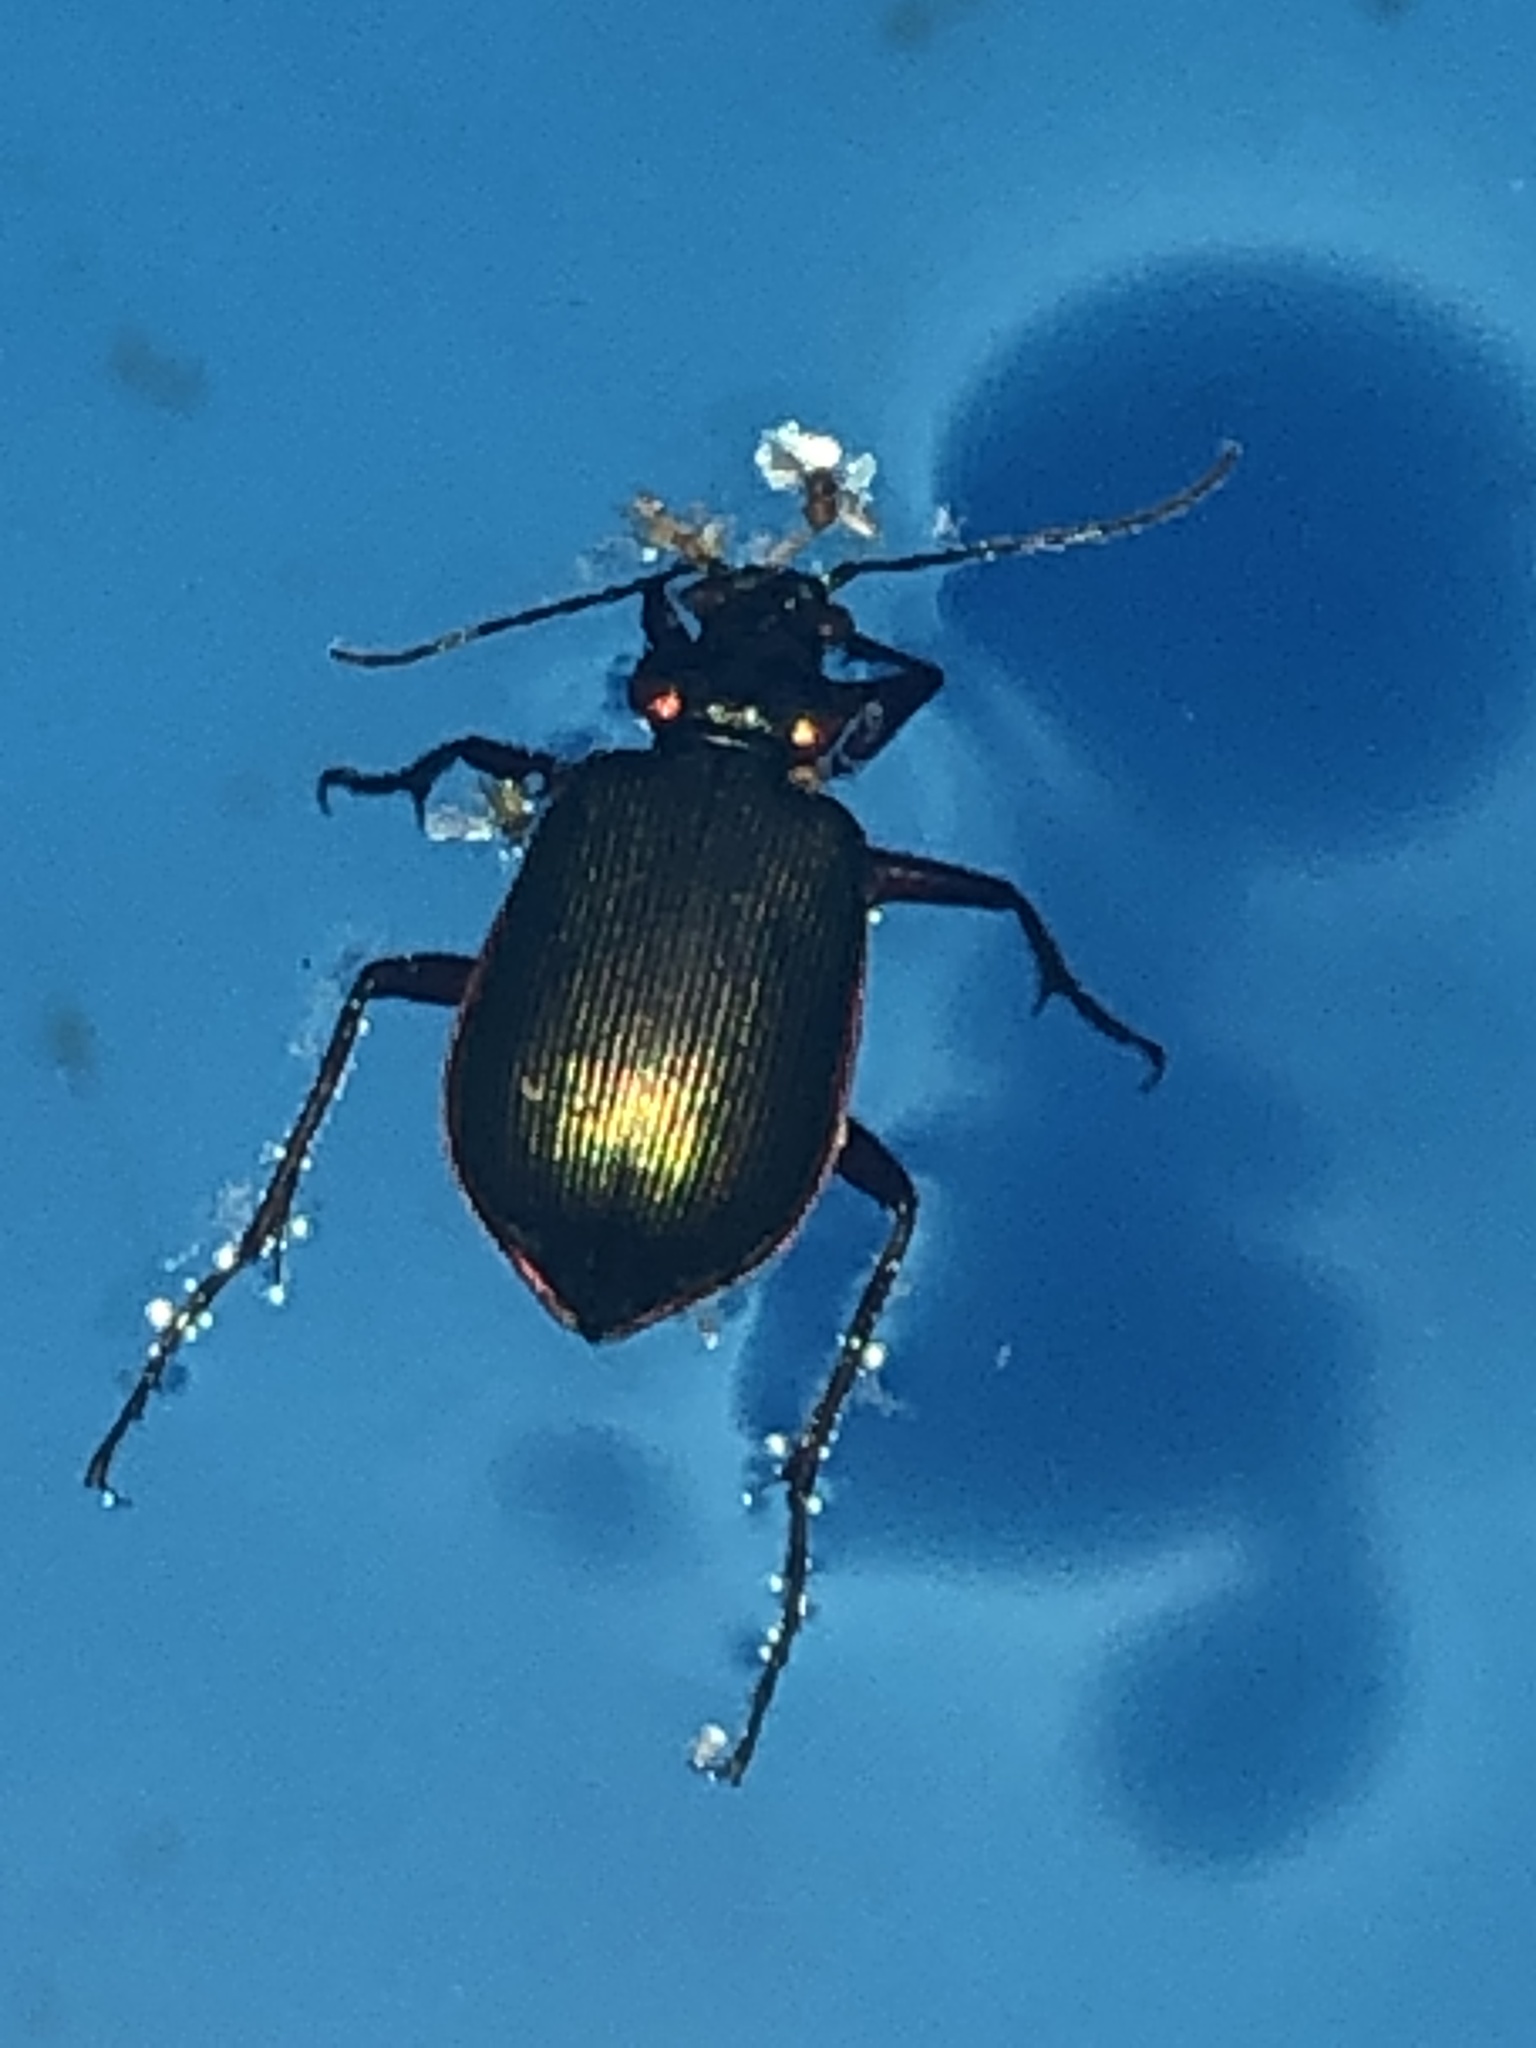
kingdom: Animalia
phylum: Arthropoda
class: Insecta
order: Coleoptera
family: Carabidae
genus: Calosoma
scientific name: Calosoma scrutator
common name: Fiery searcher beetle
